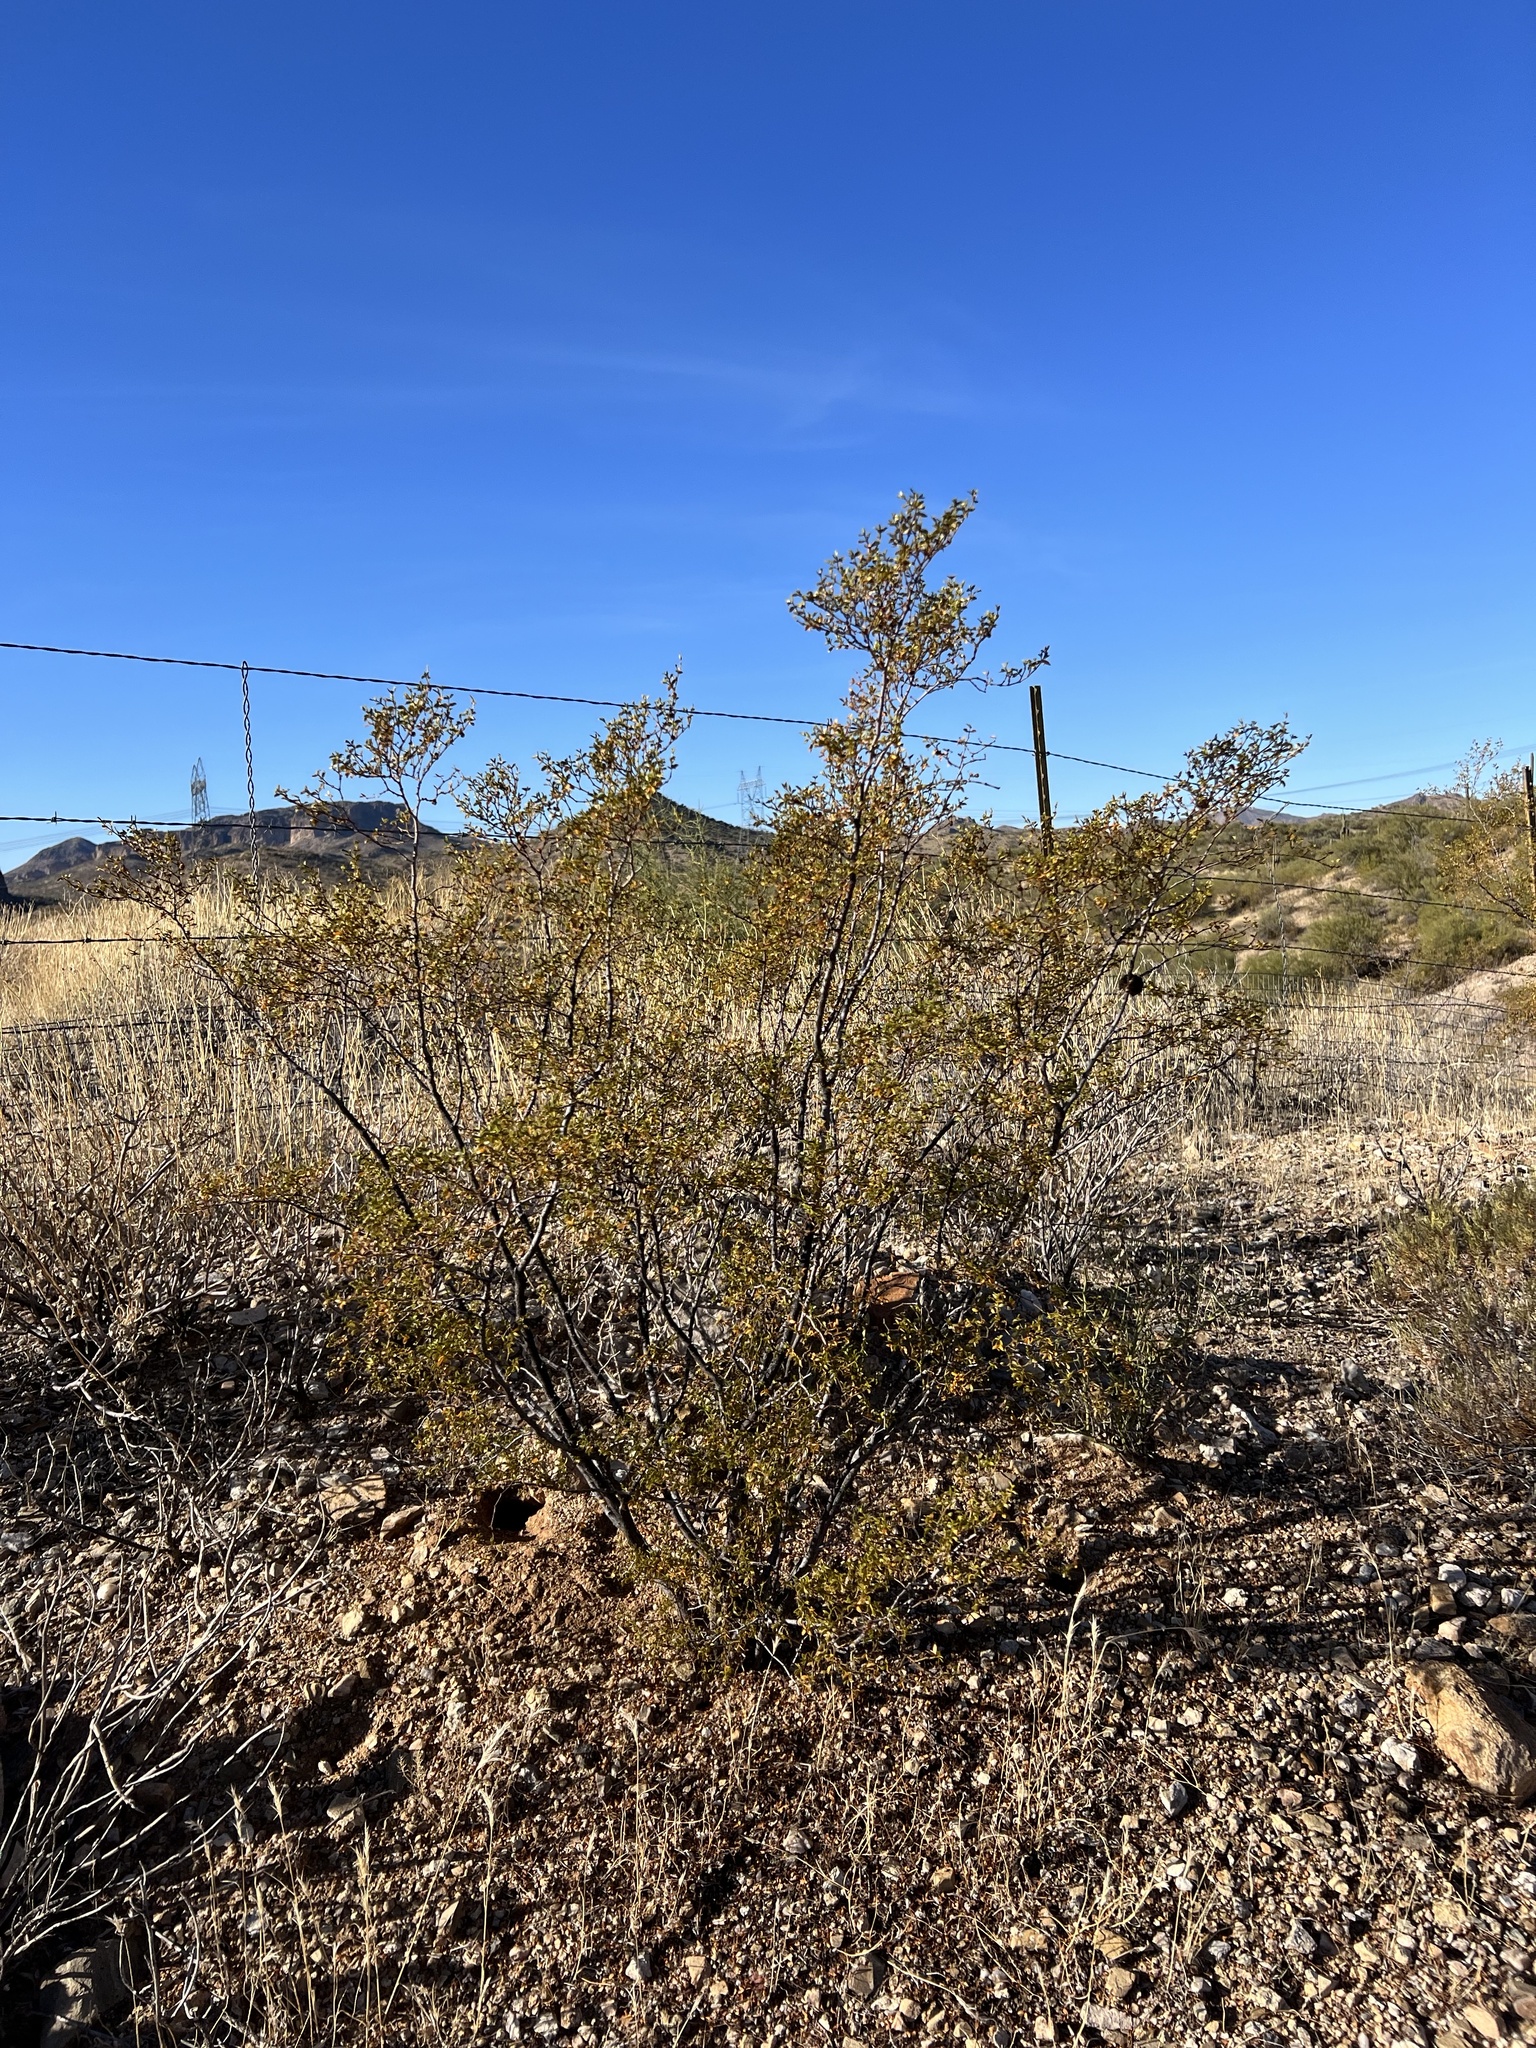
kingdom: Plantae
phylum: Tracheophyta
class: Magnoliopsida
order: Zygophyllales
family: Zygophyllaceae
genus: Larrea
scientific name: Larrea tridentata
